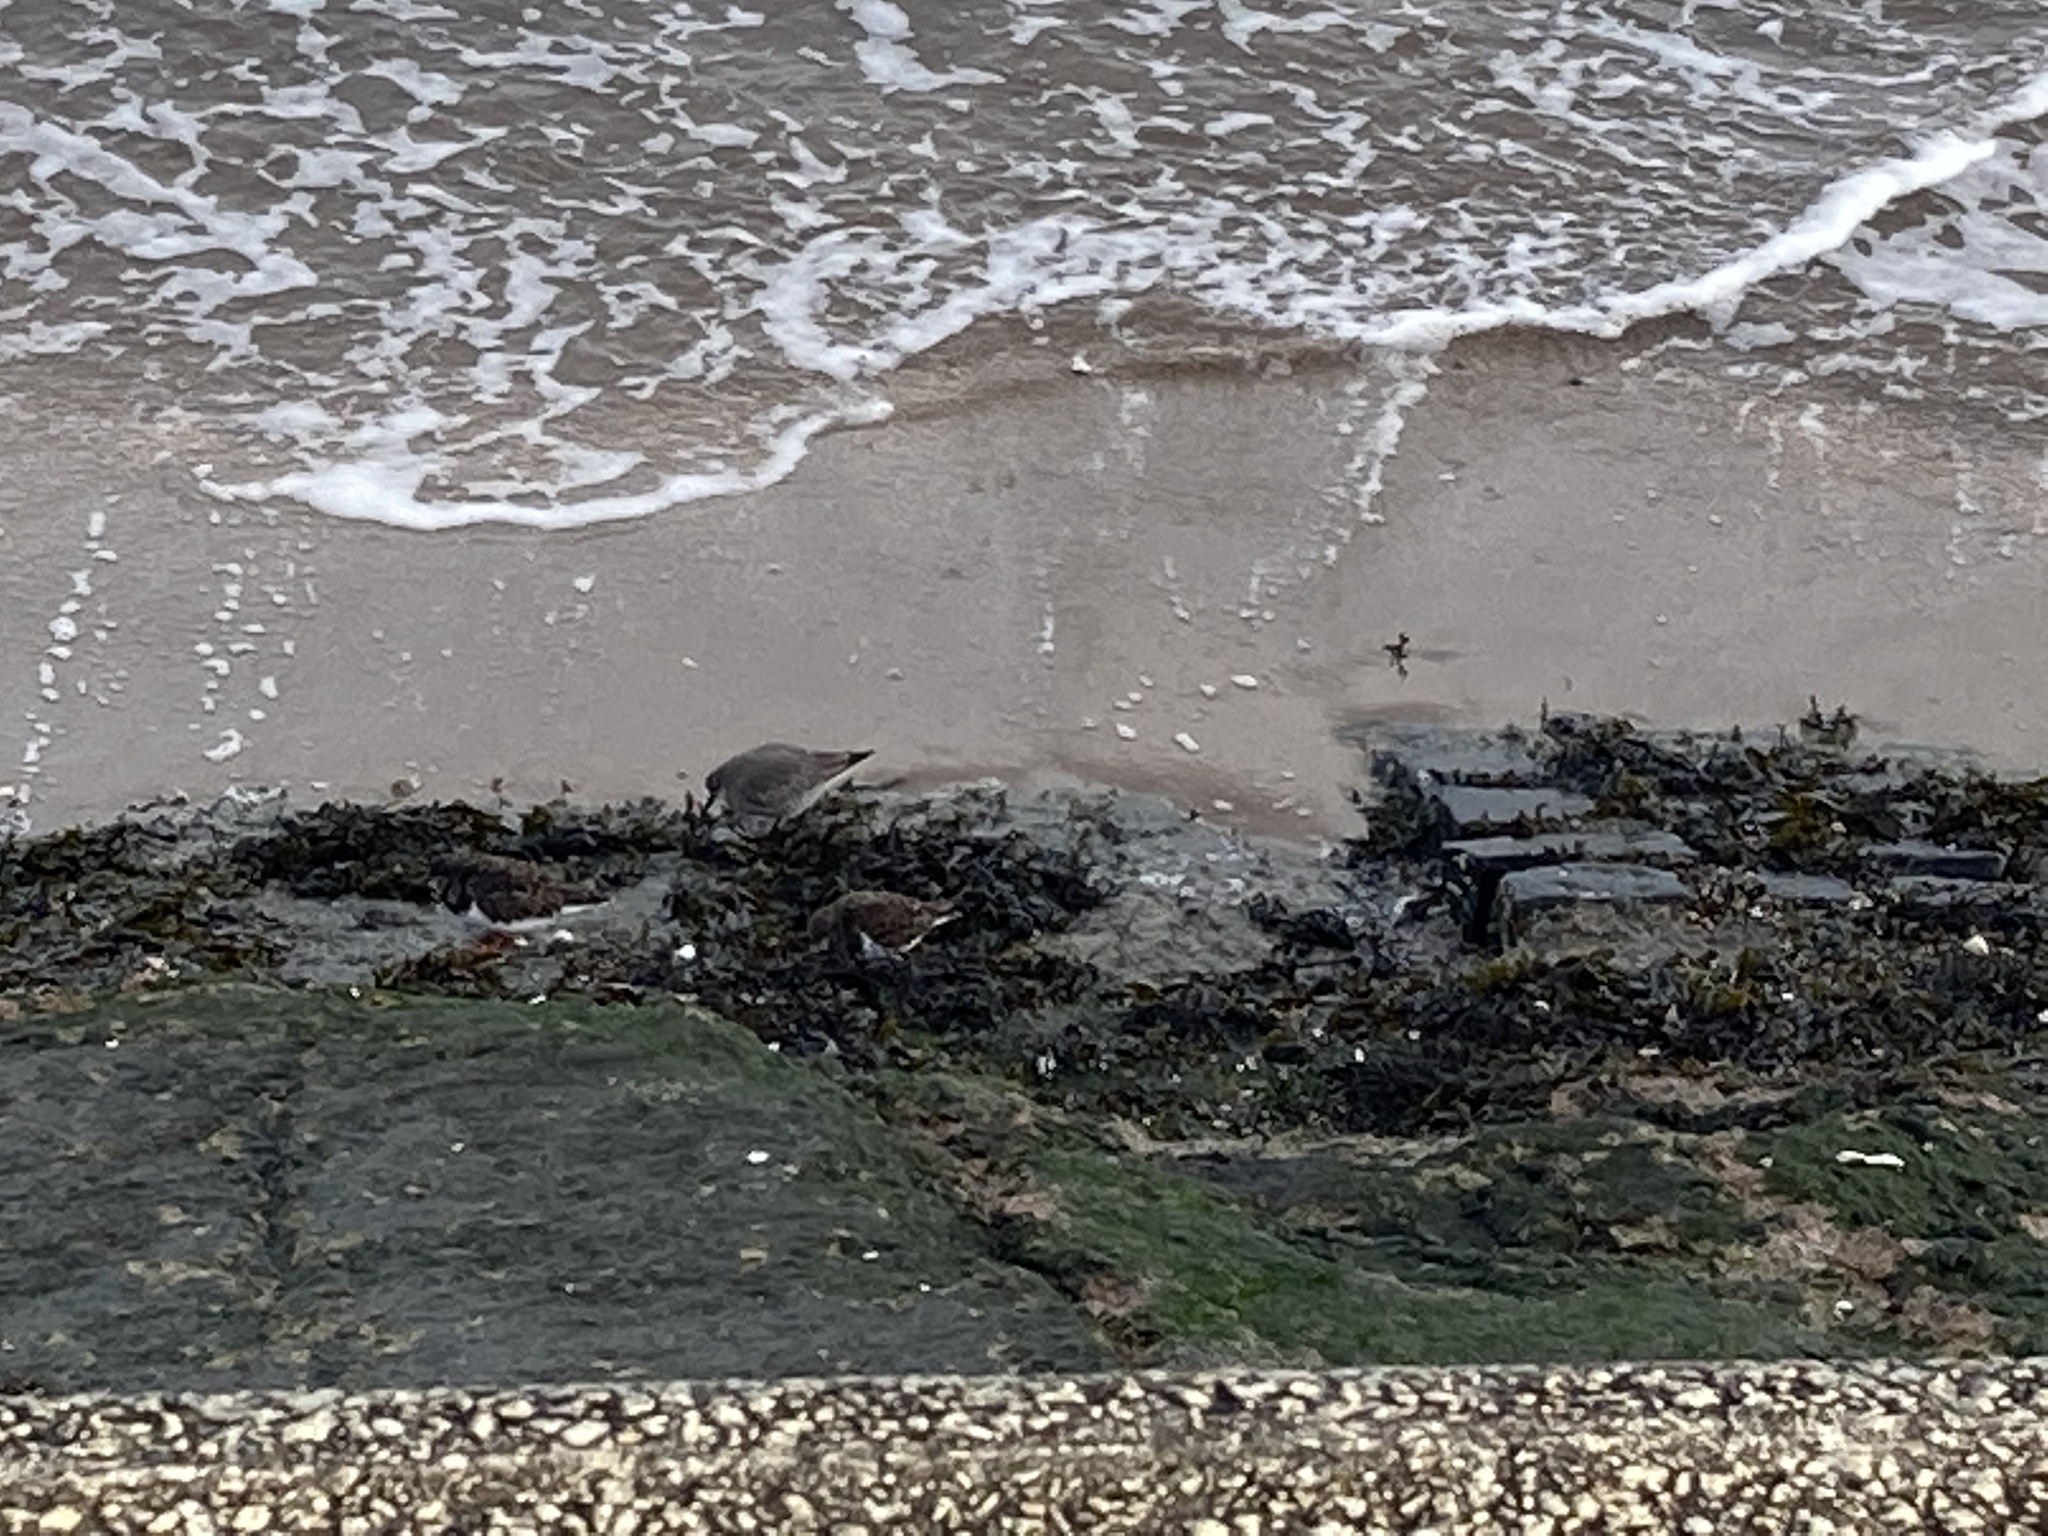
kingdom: Animalia
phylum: Chordata
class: Aves
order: Charadriiformes
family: Scolopacidae
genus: Calidris
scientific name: Calidris canutus
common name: Red knot
